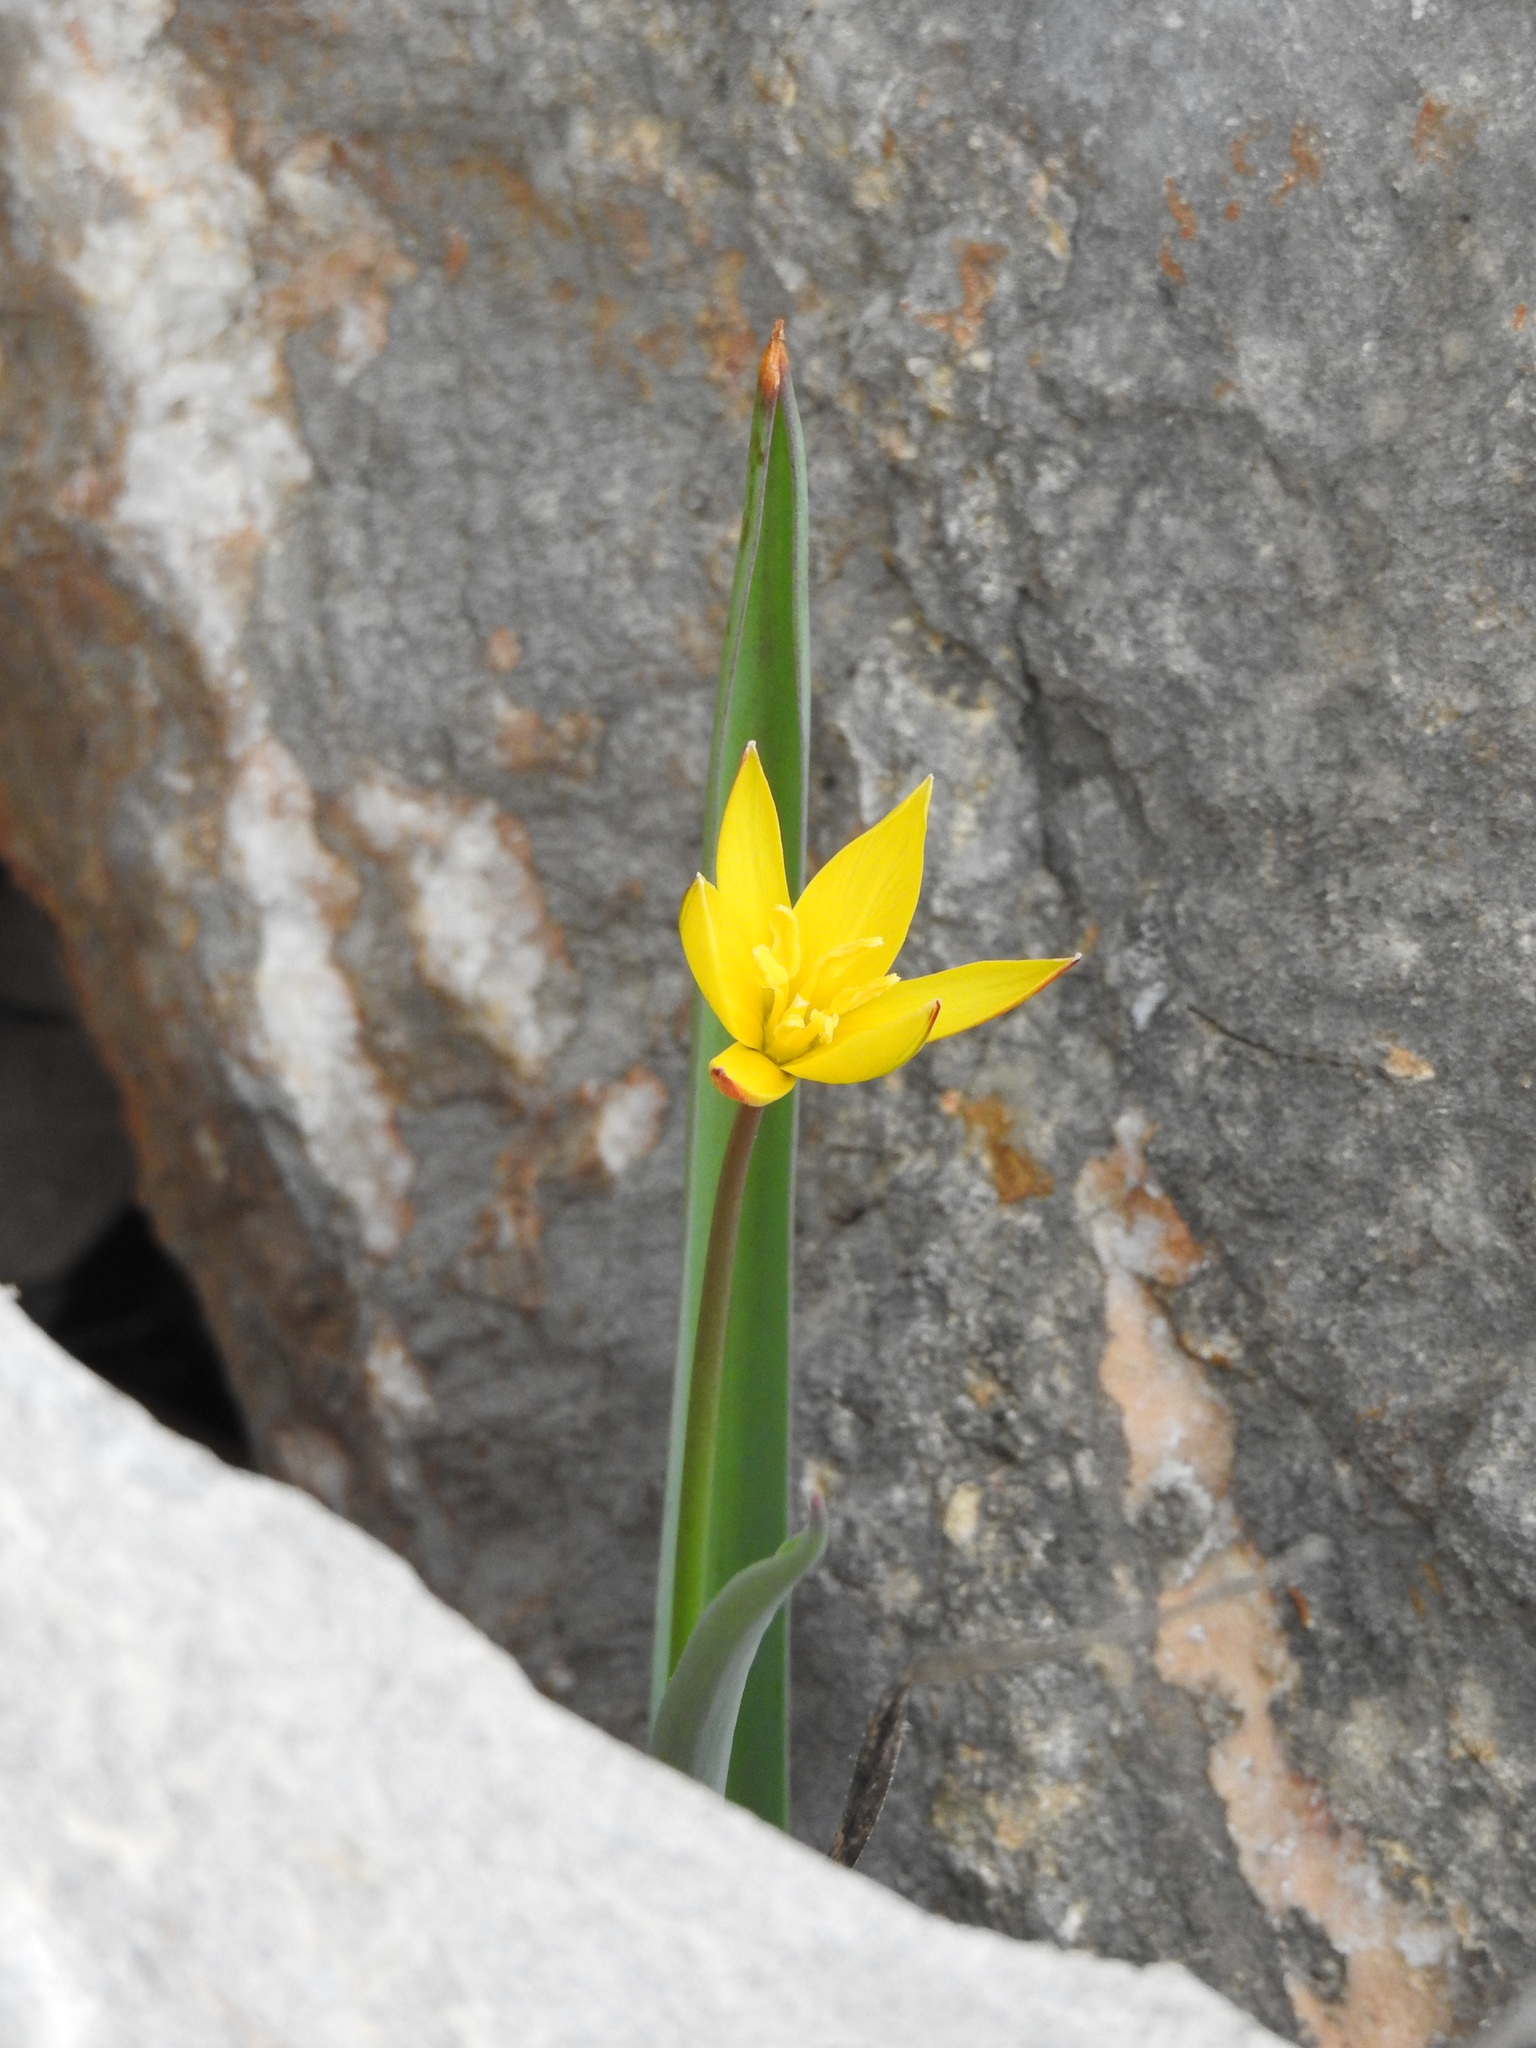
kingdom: Plantae
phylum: Tracheophyta
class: Liliopsida
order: Liliales
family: Liliaceae
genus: Tulipa
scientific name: Tulipa sylvestris
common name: Wild tulip
